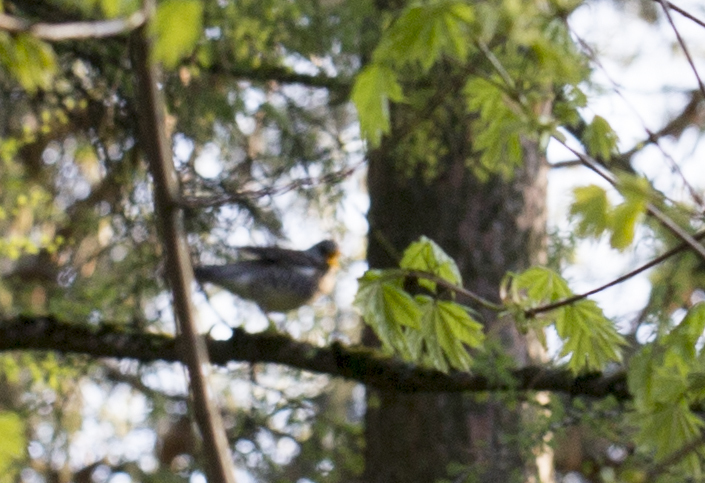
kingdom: Animalia
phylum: Chordata
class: Aves
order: Passeriformes
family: Turdidae
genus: Turdus
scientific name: Turdus pilaris
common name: Fieldfare
